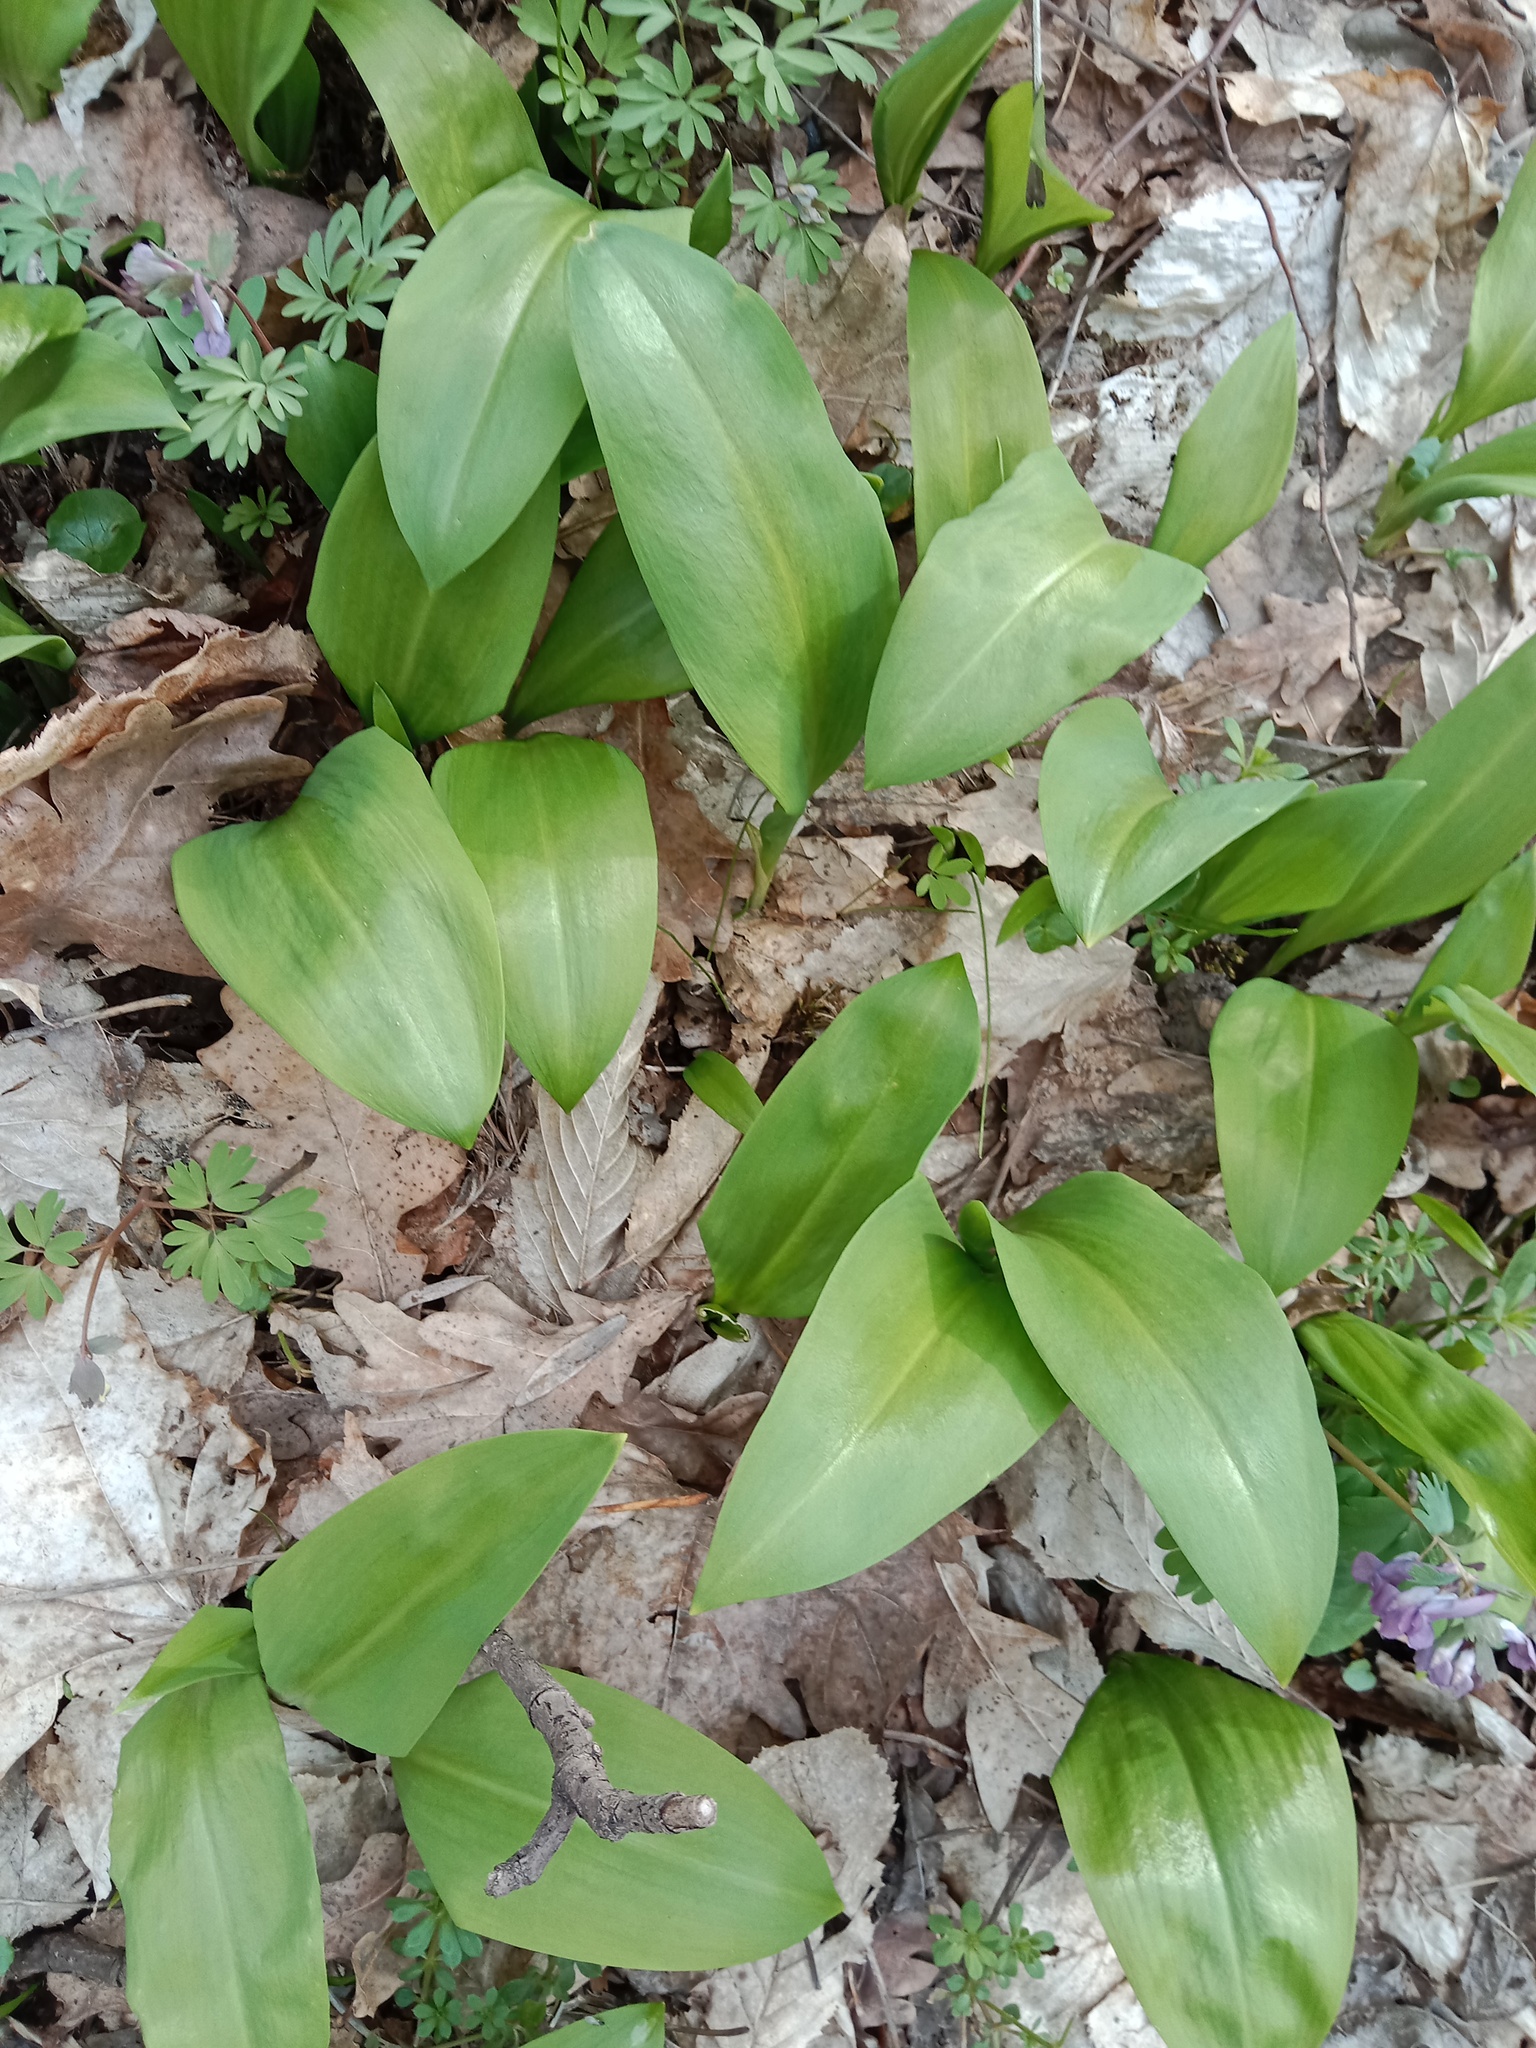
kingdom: Plantae
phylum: Tracheophyta
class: Liliopsida
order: Asparagales
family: Amaryllidaceae
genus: Allium
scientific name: Allium ursinum
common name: Ramsons
